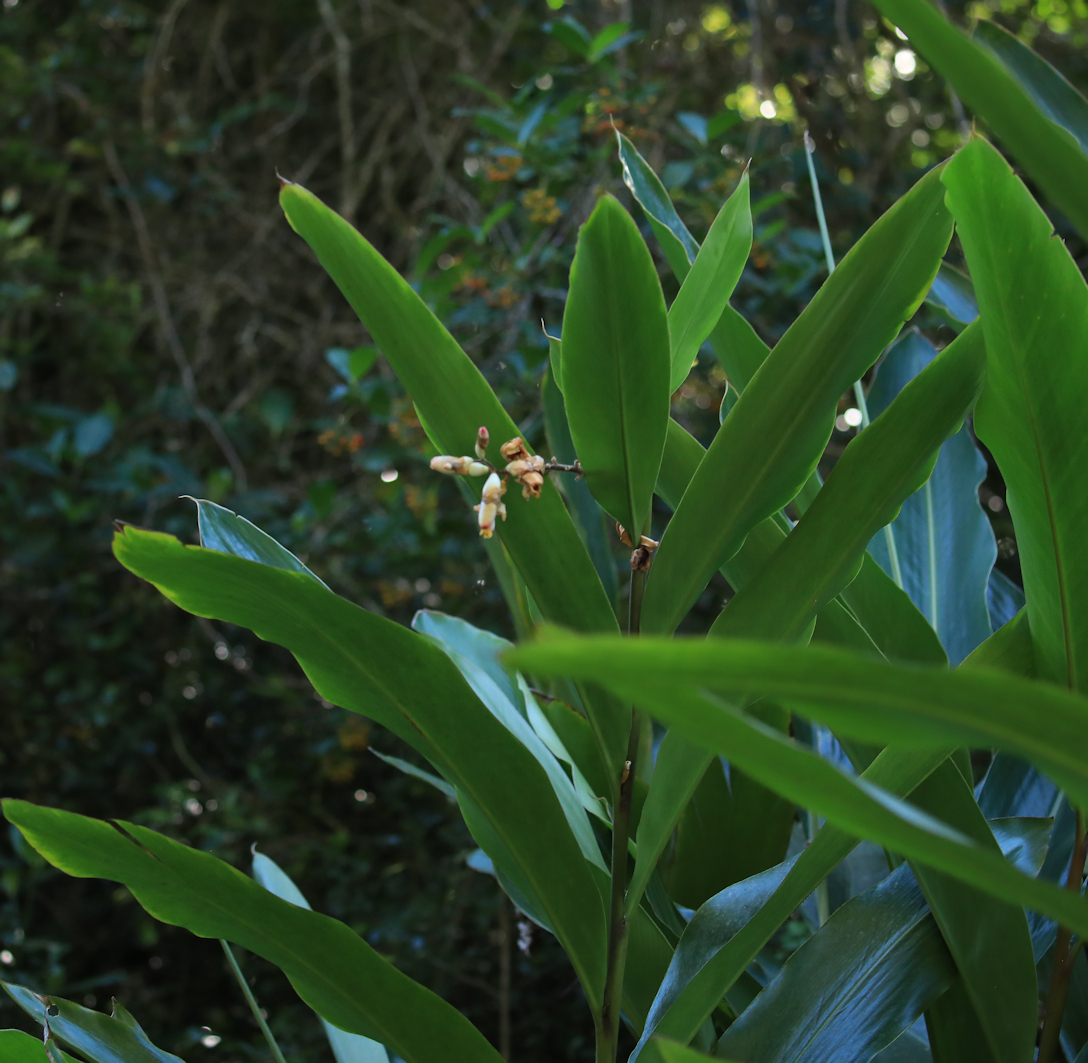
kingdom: Plantae
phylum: Tracheophyta
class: Liliopsida
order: Zingiberales
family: Zingiberaceae
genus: Alpinia
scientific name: Alpinia zerumbet
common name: Shellplant
